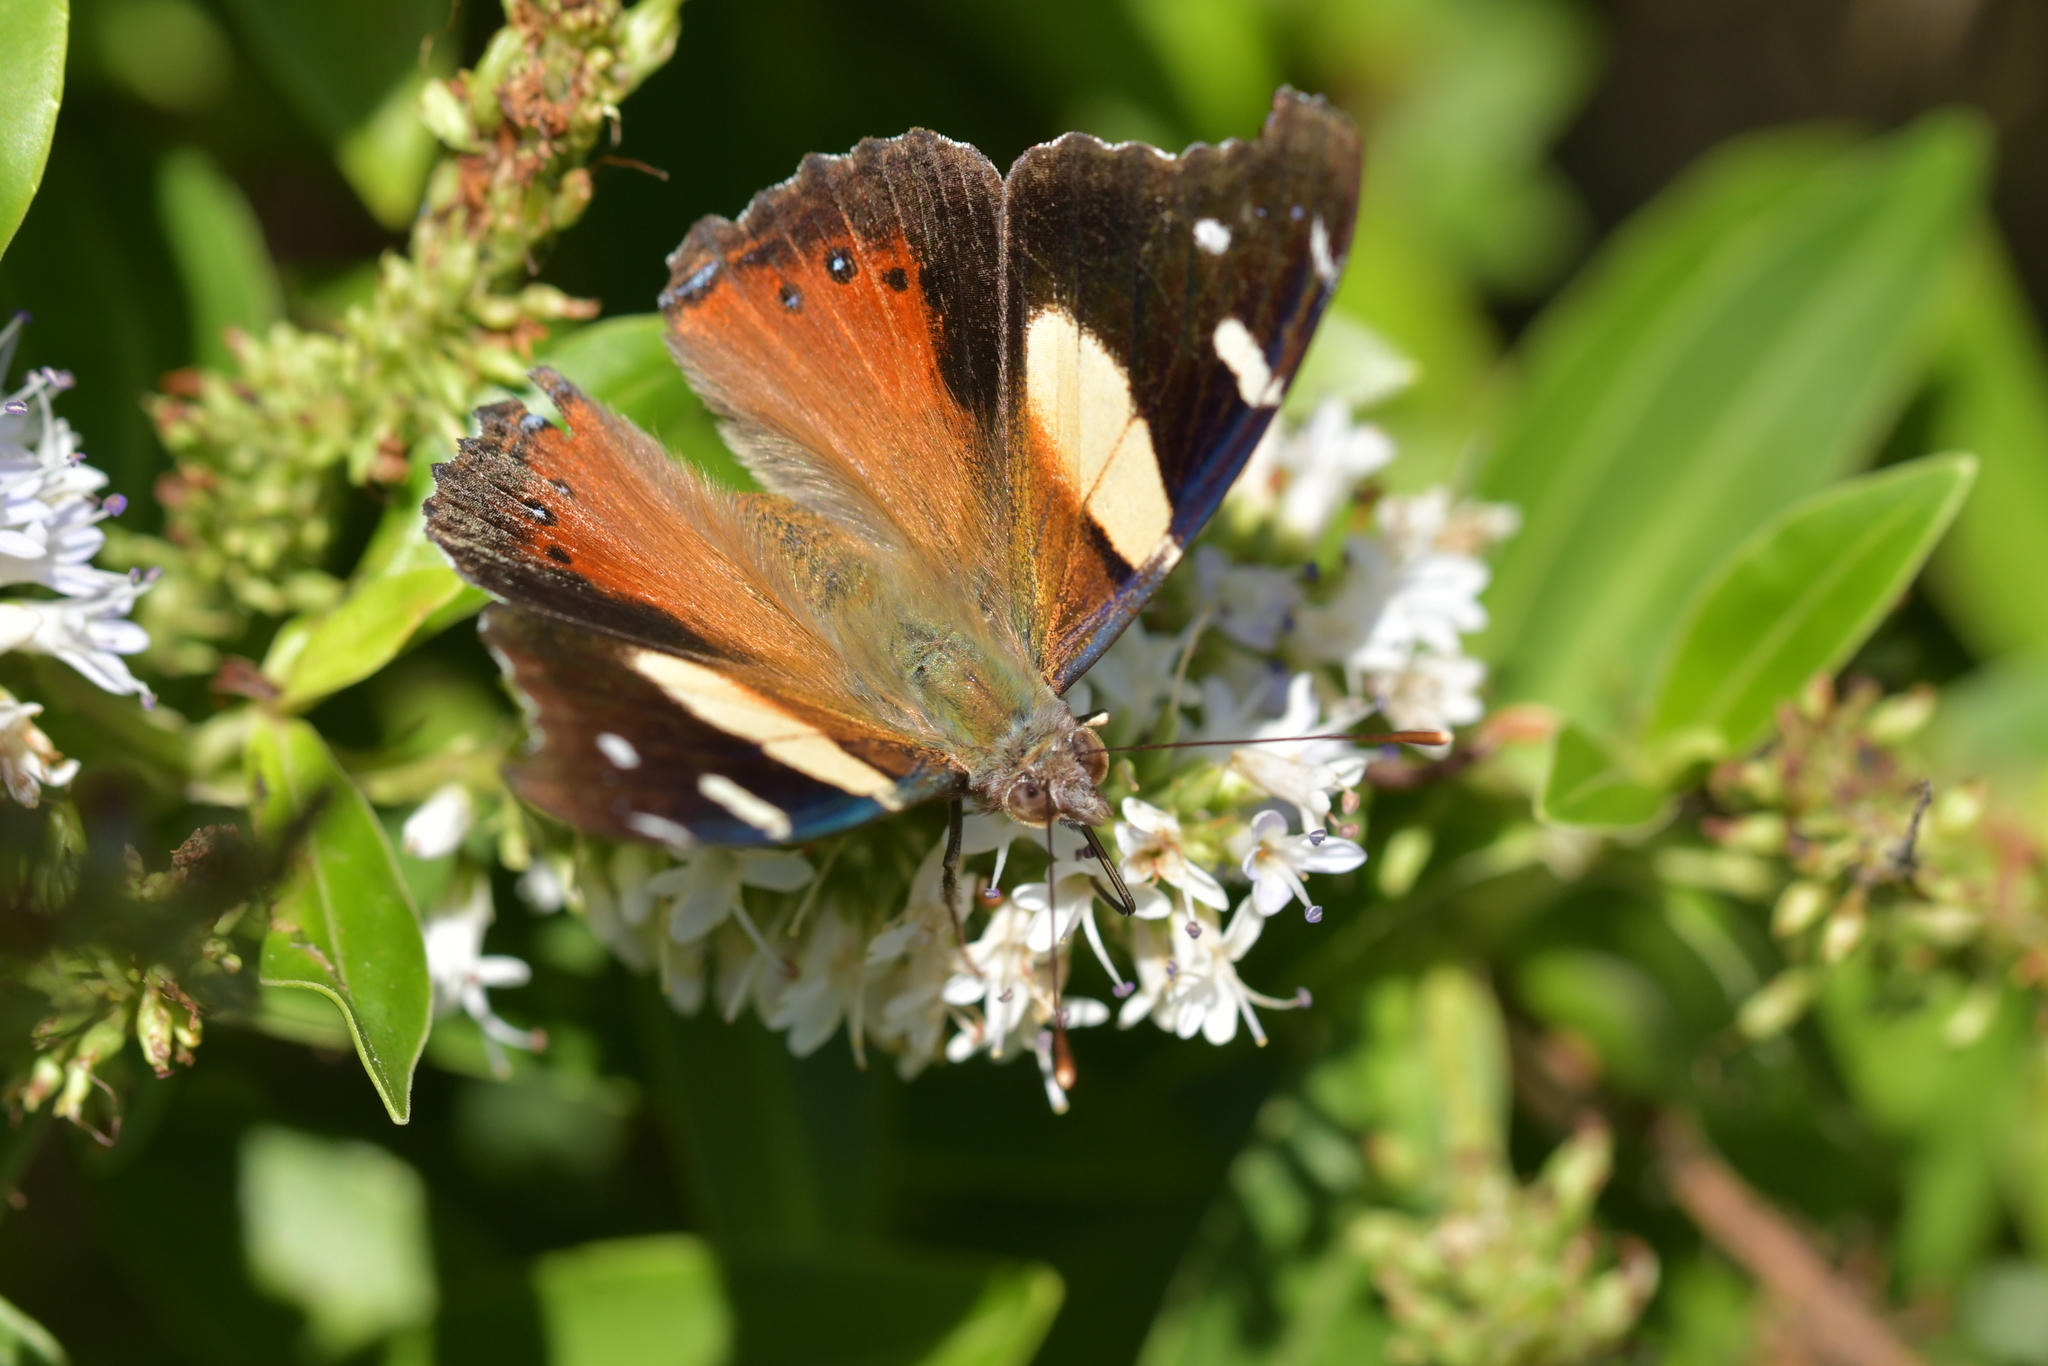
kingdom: Animalia
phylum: Arthropoda
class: Insecta
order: Lepidoptera
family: Nymphalidae
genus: Vanessa
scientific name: Vanessa itea
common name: Yellow admiral
